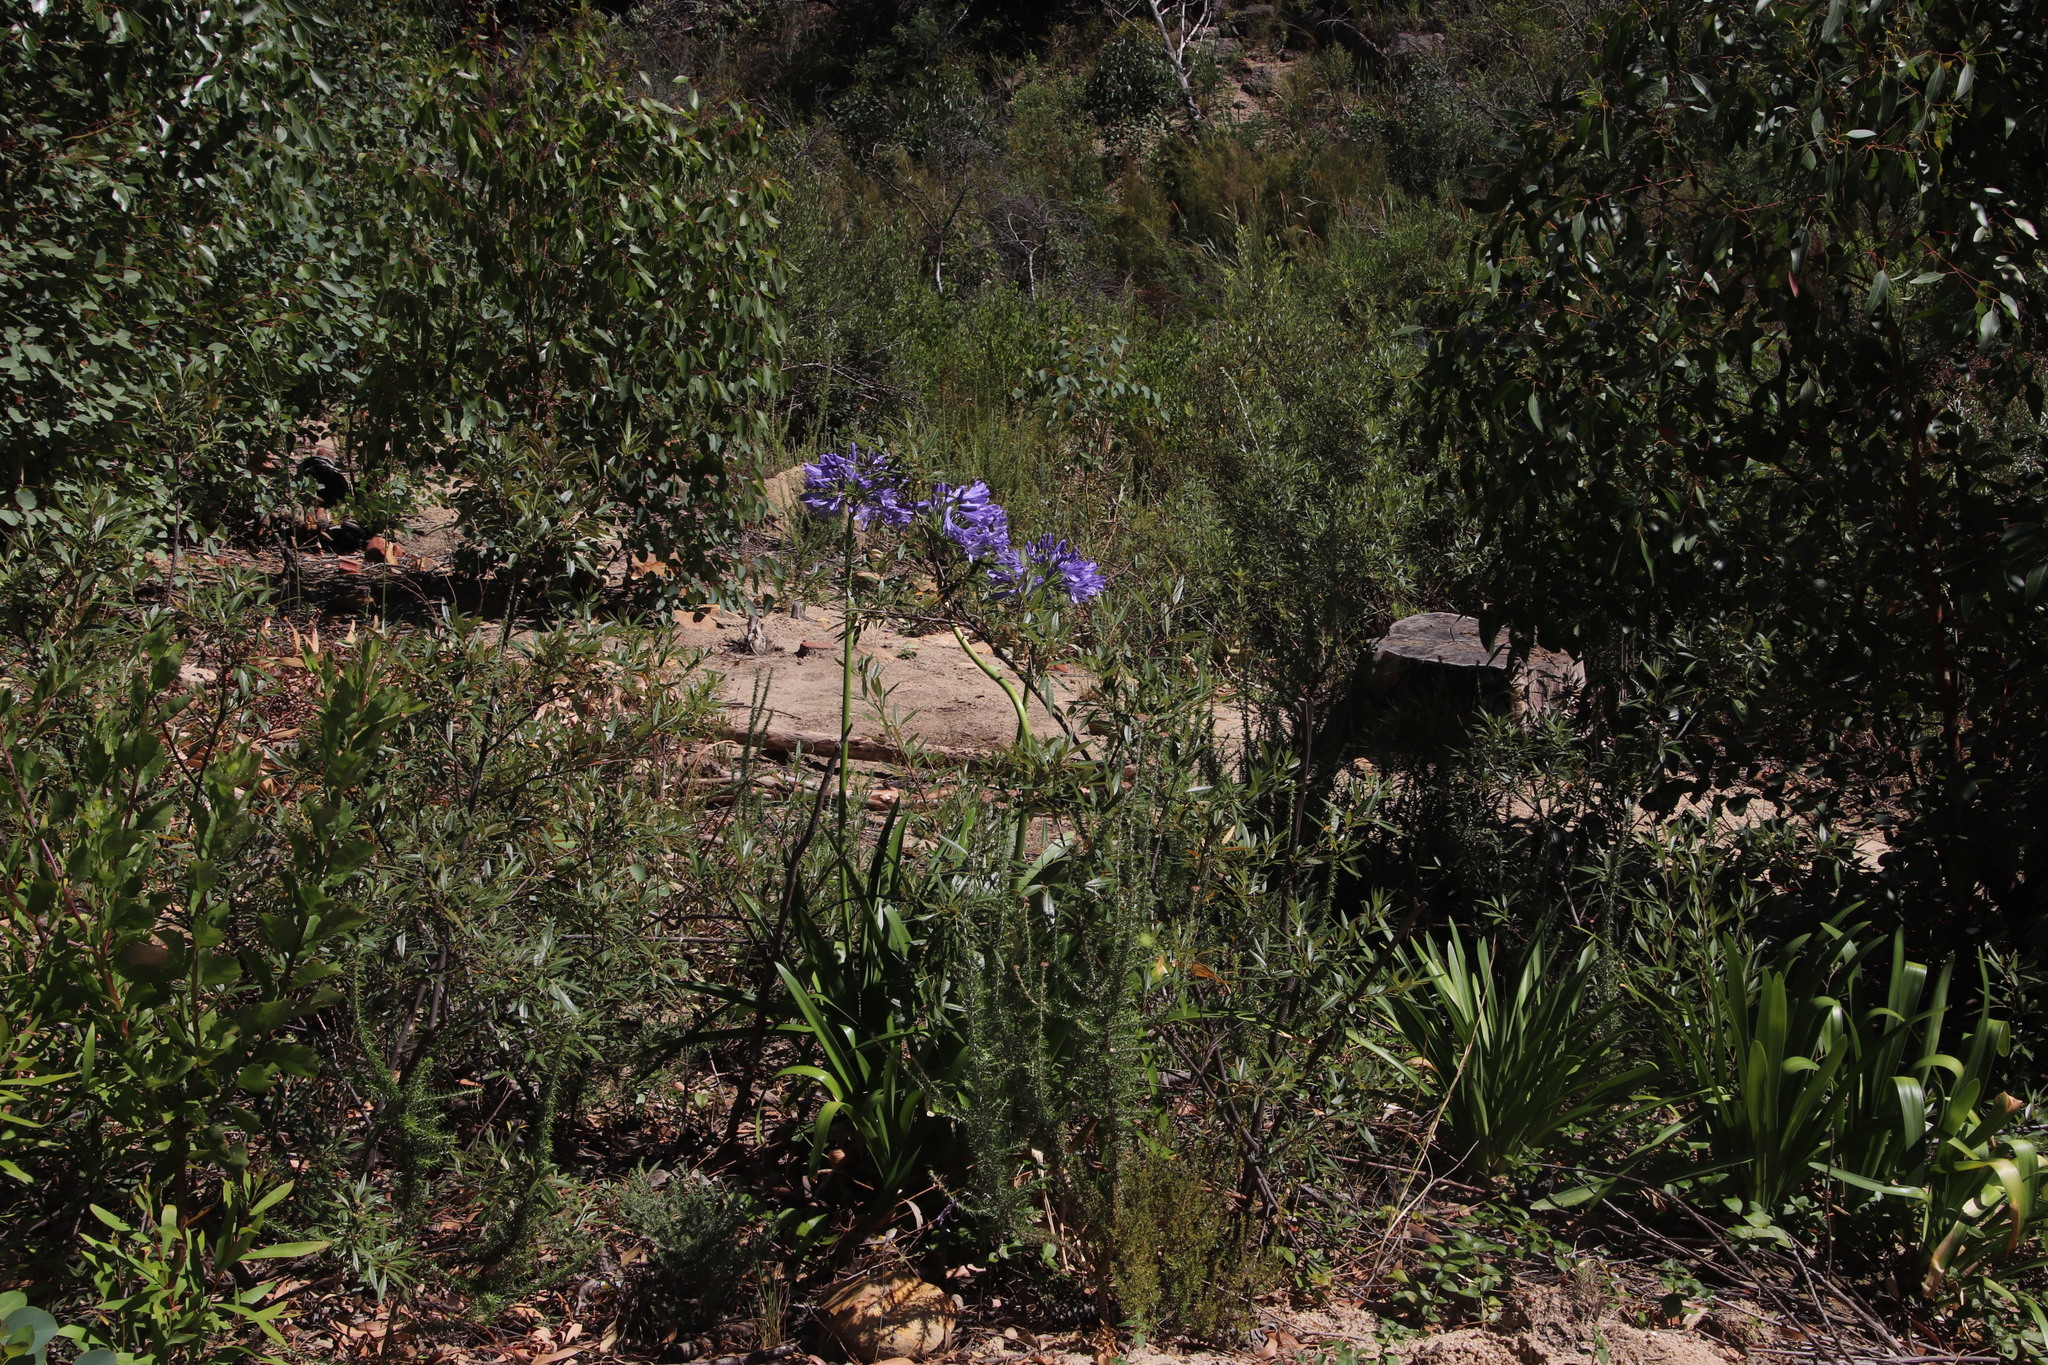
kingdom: Plantae
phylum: Tracheophyta
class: Liliopsida
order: Asparagales
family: Amaryllidaceae
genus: Agapanthus
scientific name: Agapanthus praecox
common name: African-lily
